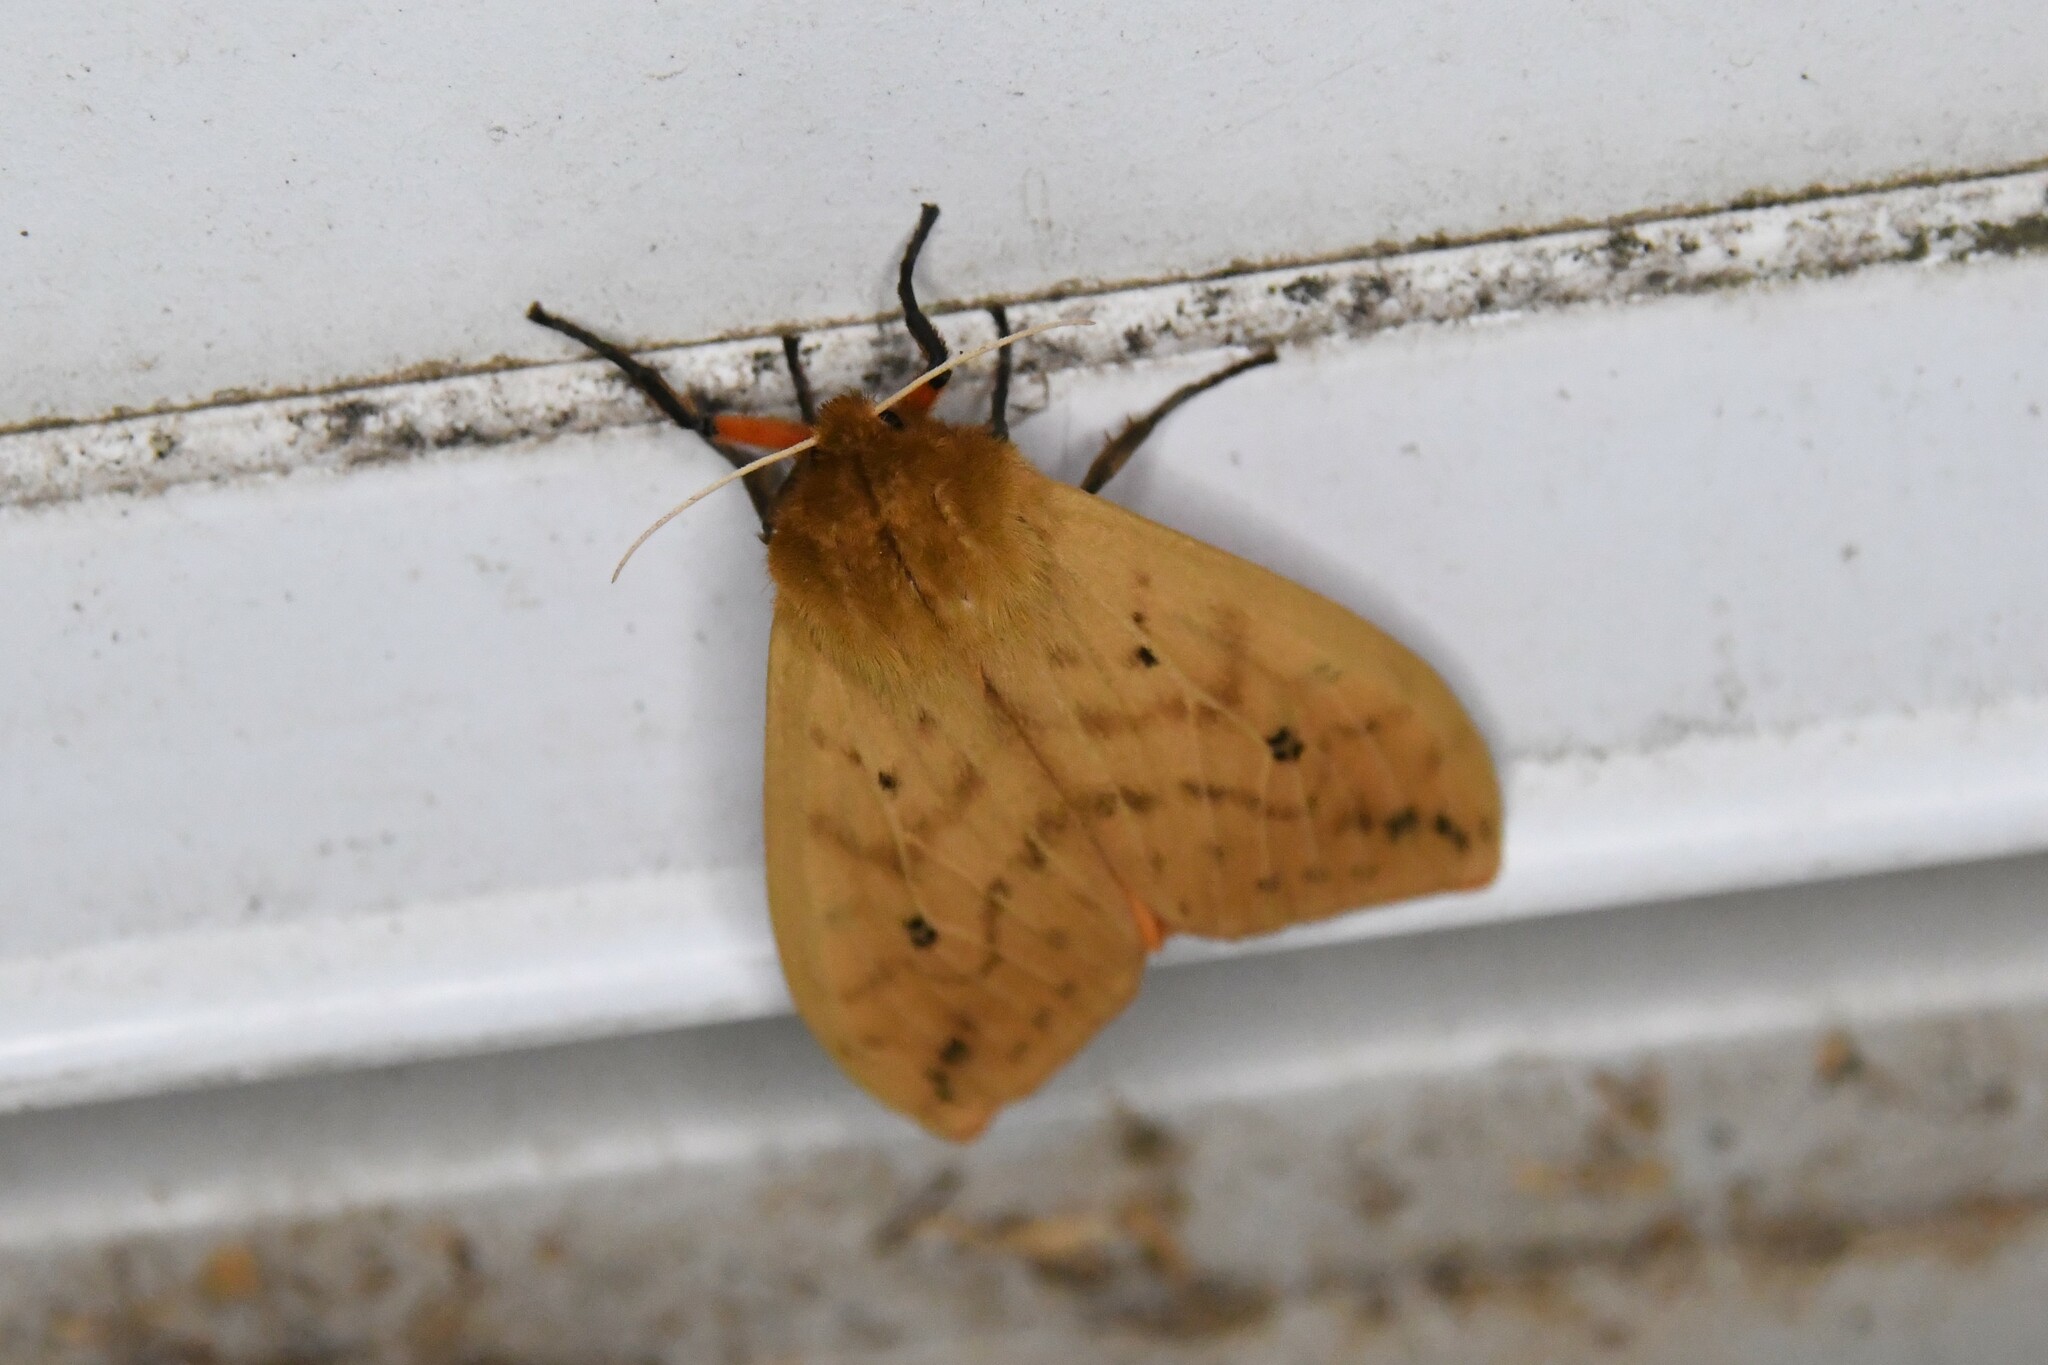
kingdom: Animalia
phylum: Arthropoda
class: Insecta
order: Lepidoptera
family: Erebidae
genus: Pyrrharctia
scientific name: Pyrrharctia isabella
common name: Isabella tiger moth
